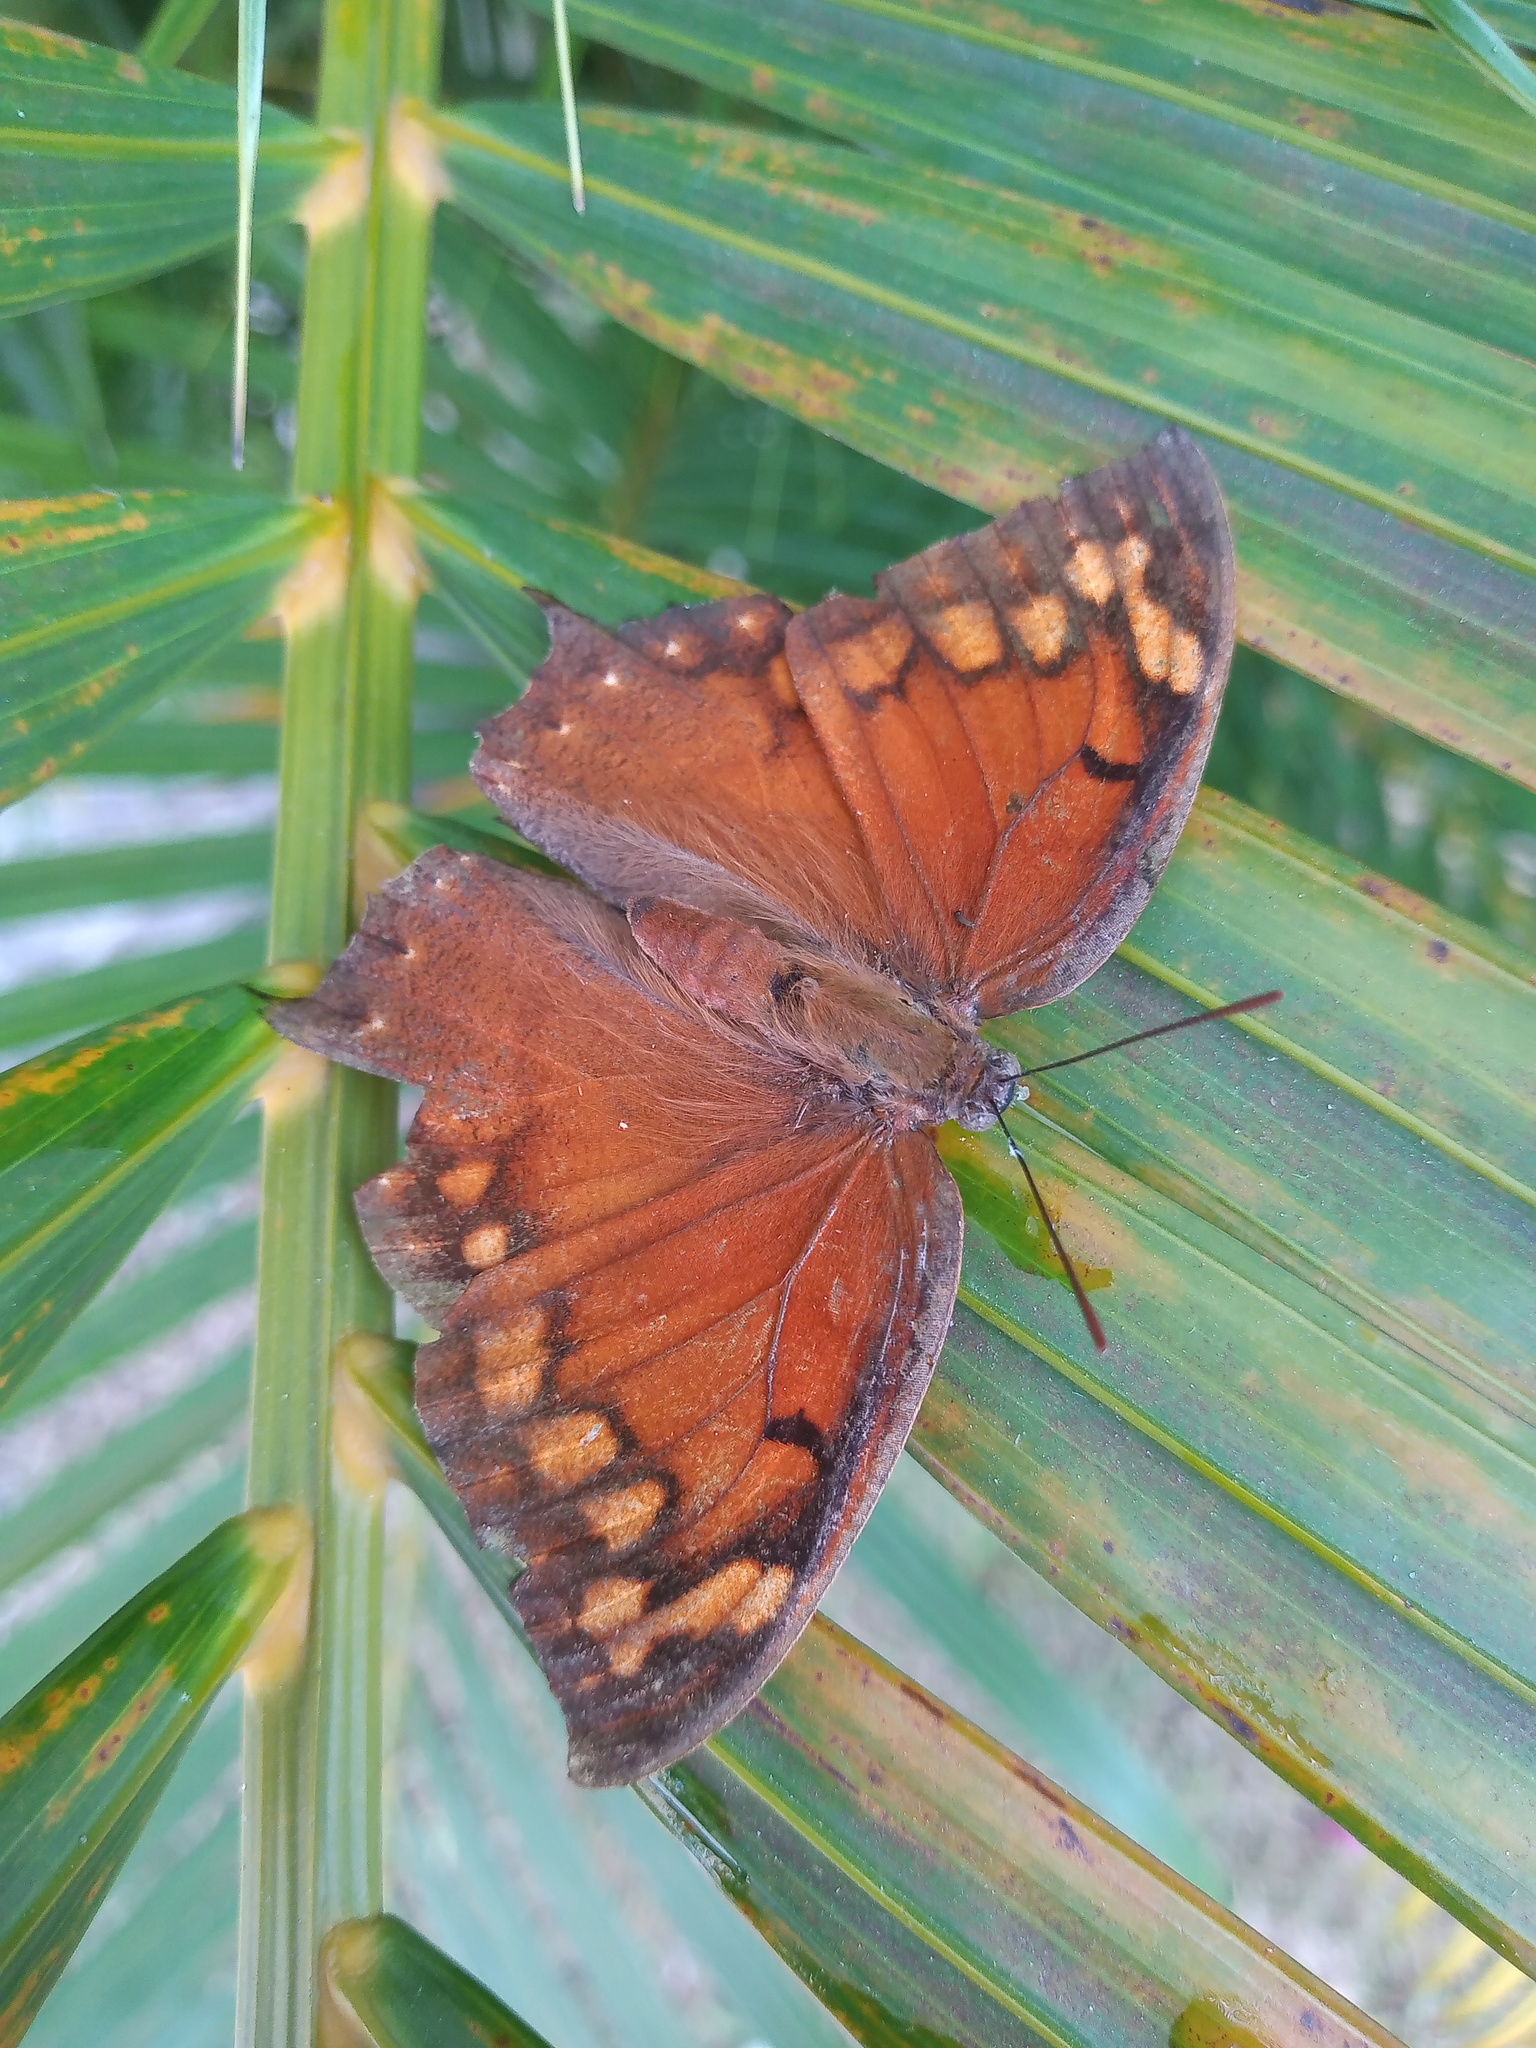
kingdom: Animalia
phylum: Arthropoda
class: Insecta
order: Lepidoptera
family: Nymphalidae
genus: Anaea
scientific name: Anaea aidea
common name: Tropical leafwing
